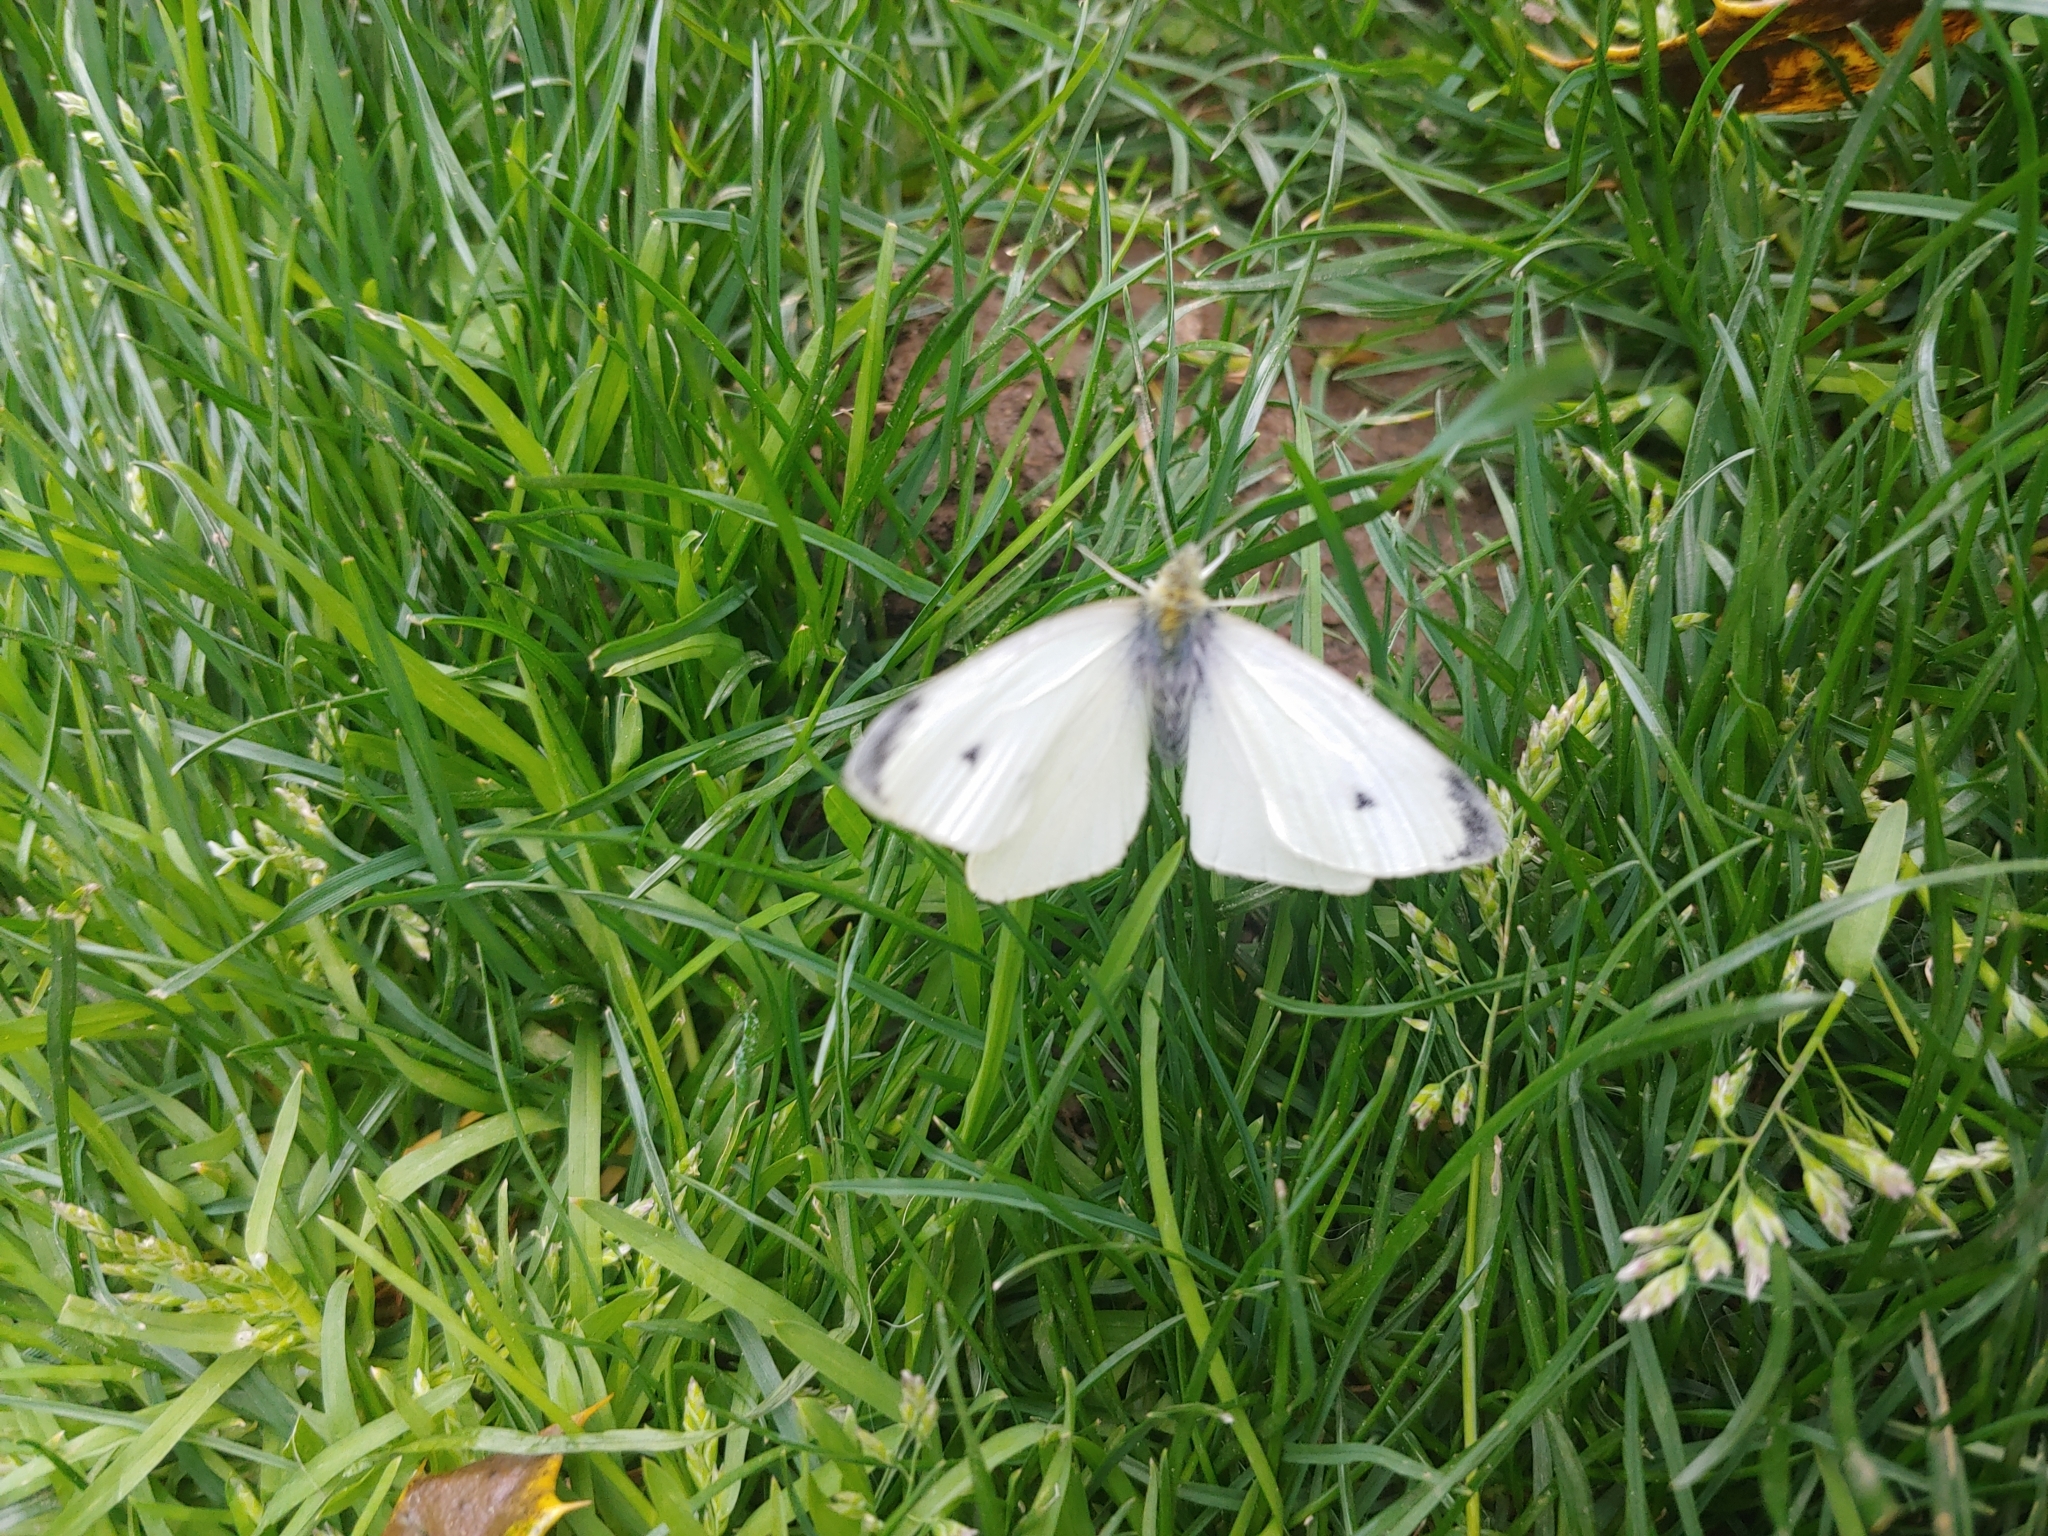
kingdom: Animalia
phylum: Arthropoda
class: Insecta
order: Lepidoptera
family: Pieridae
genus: Pieris
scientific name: Pieris rapae
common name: Small white
